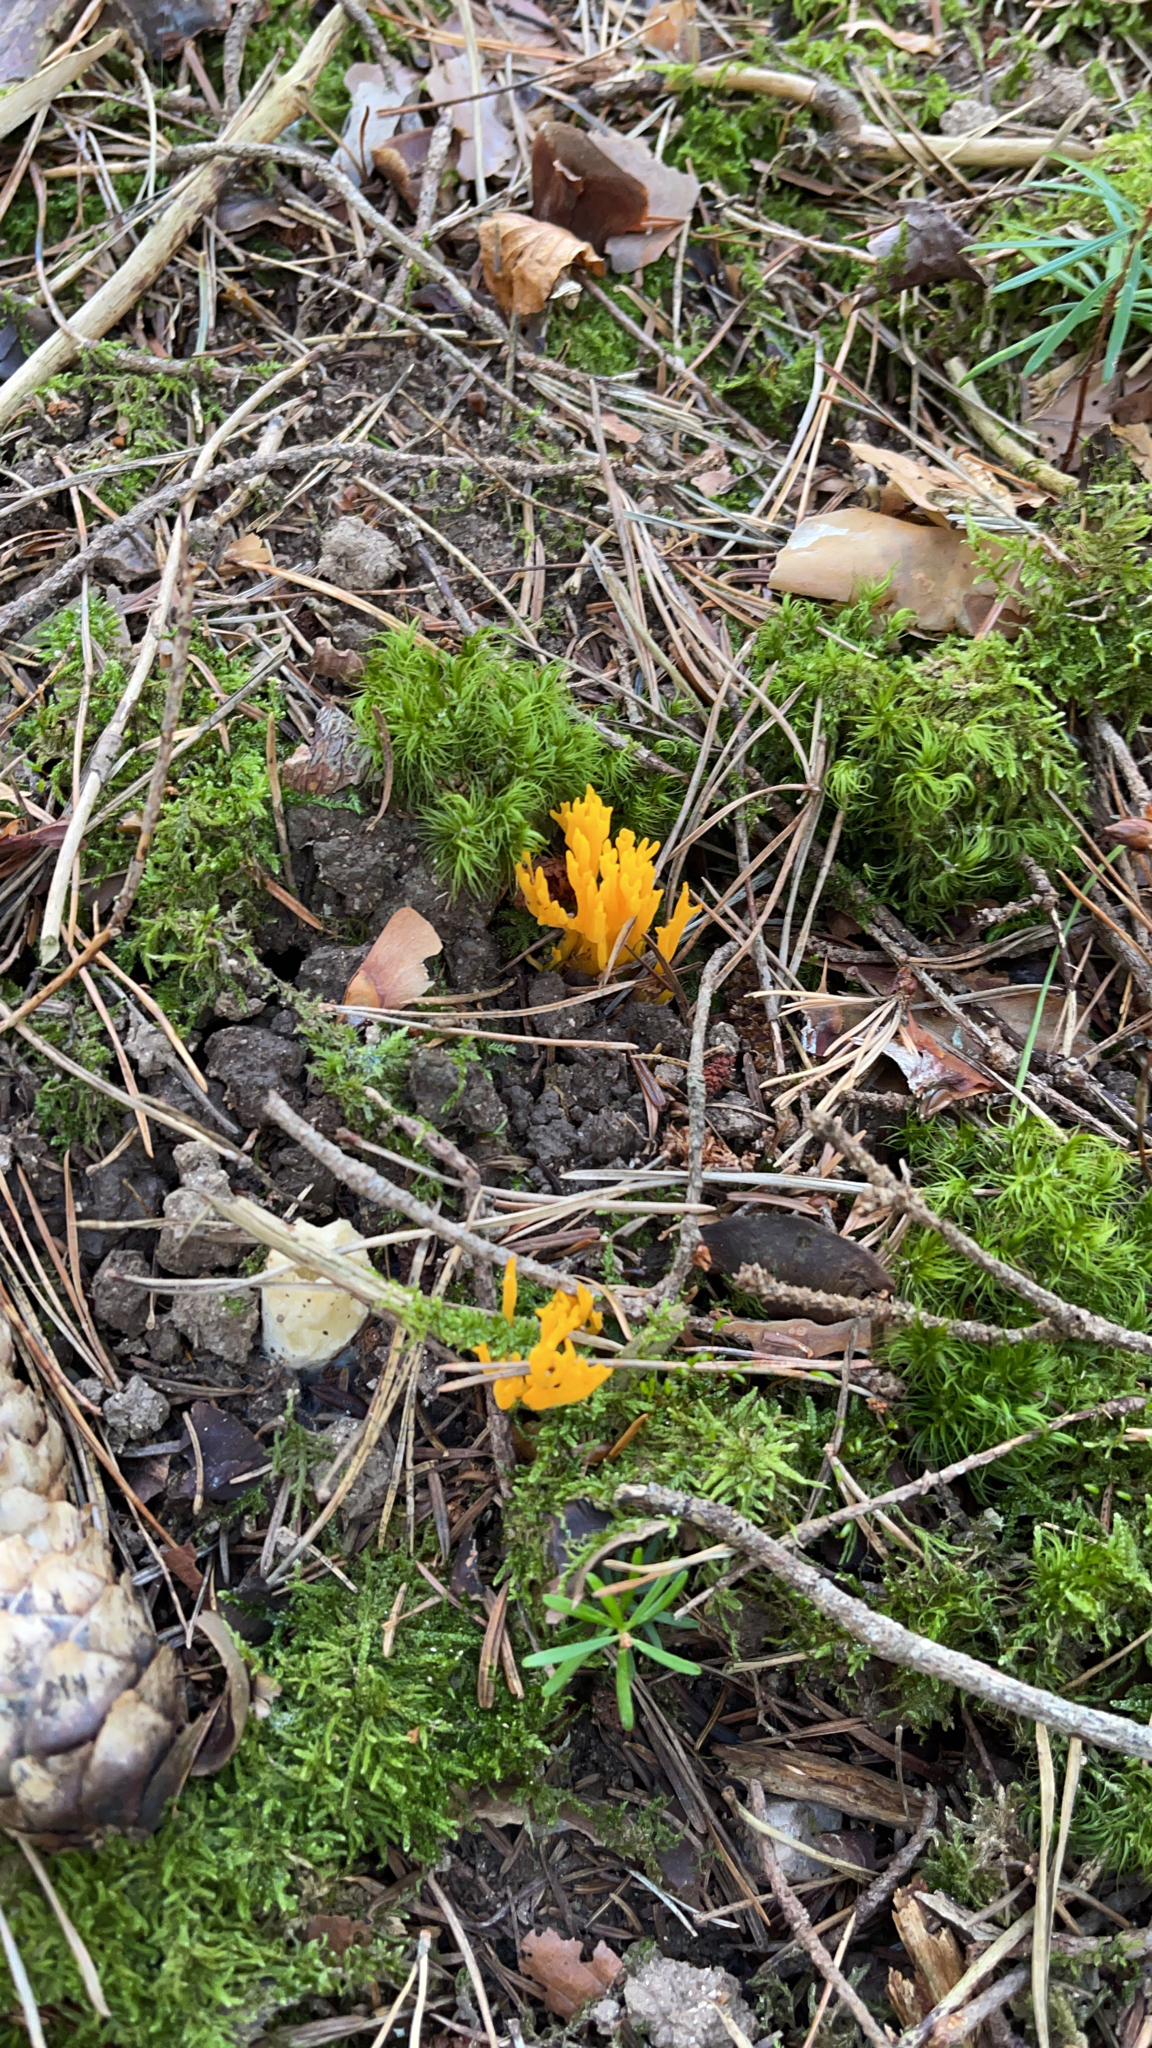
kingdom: Fungi
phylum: Basidiomycota
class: Dacrymycetes
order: Dacrymycetales
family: Dacrymycetaceae
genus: Calocera
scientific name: Calocera viscosa
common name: Yellow stagshorn
